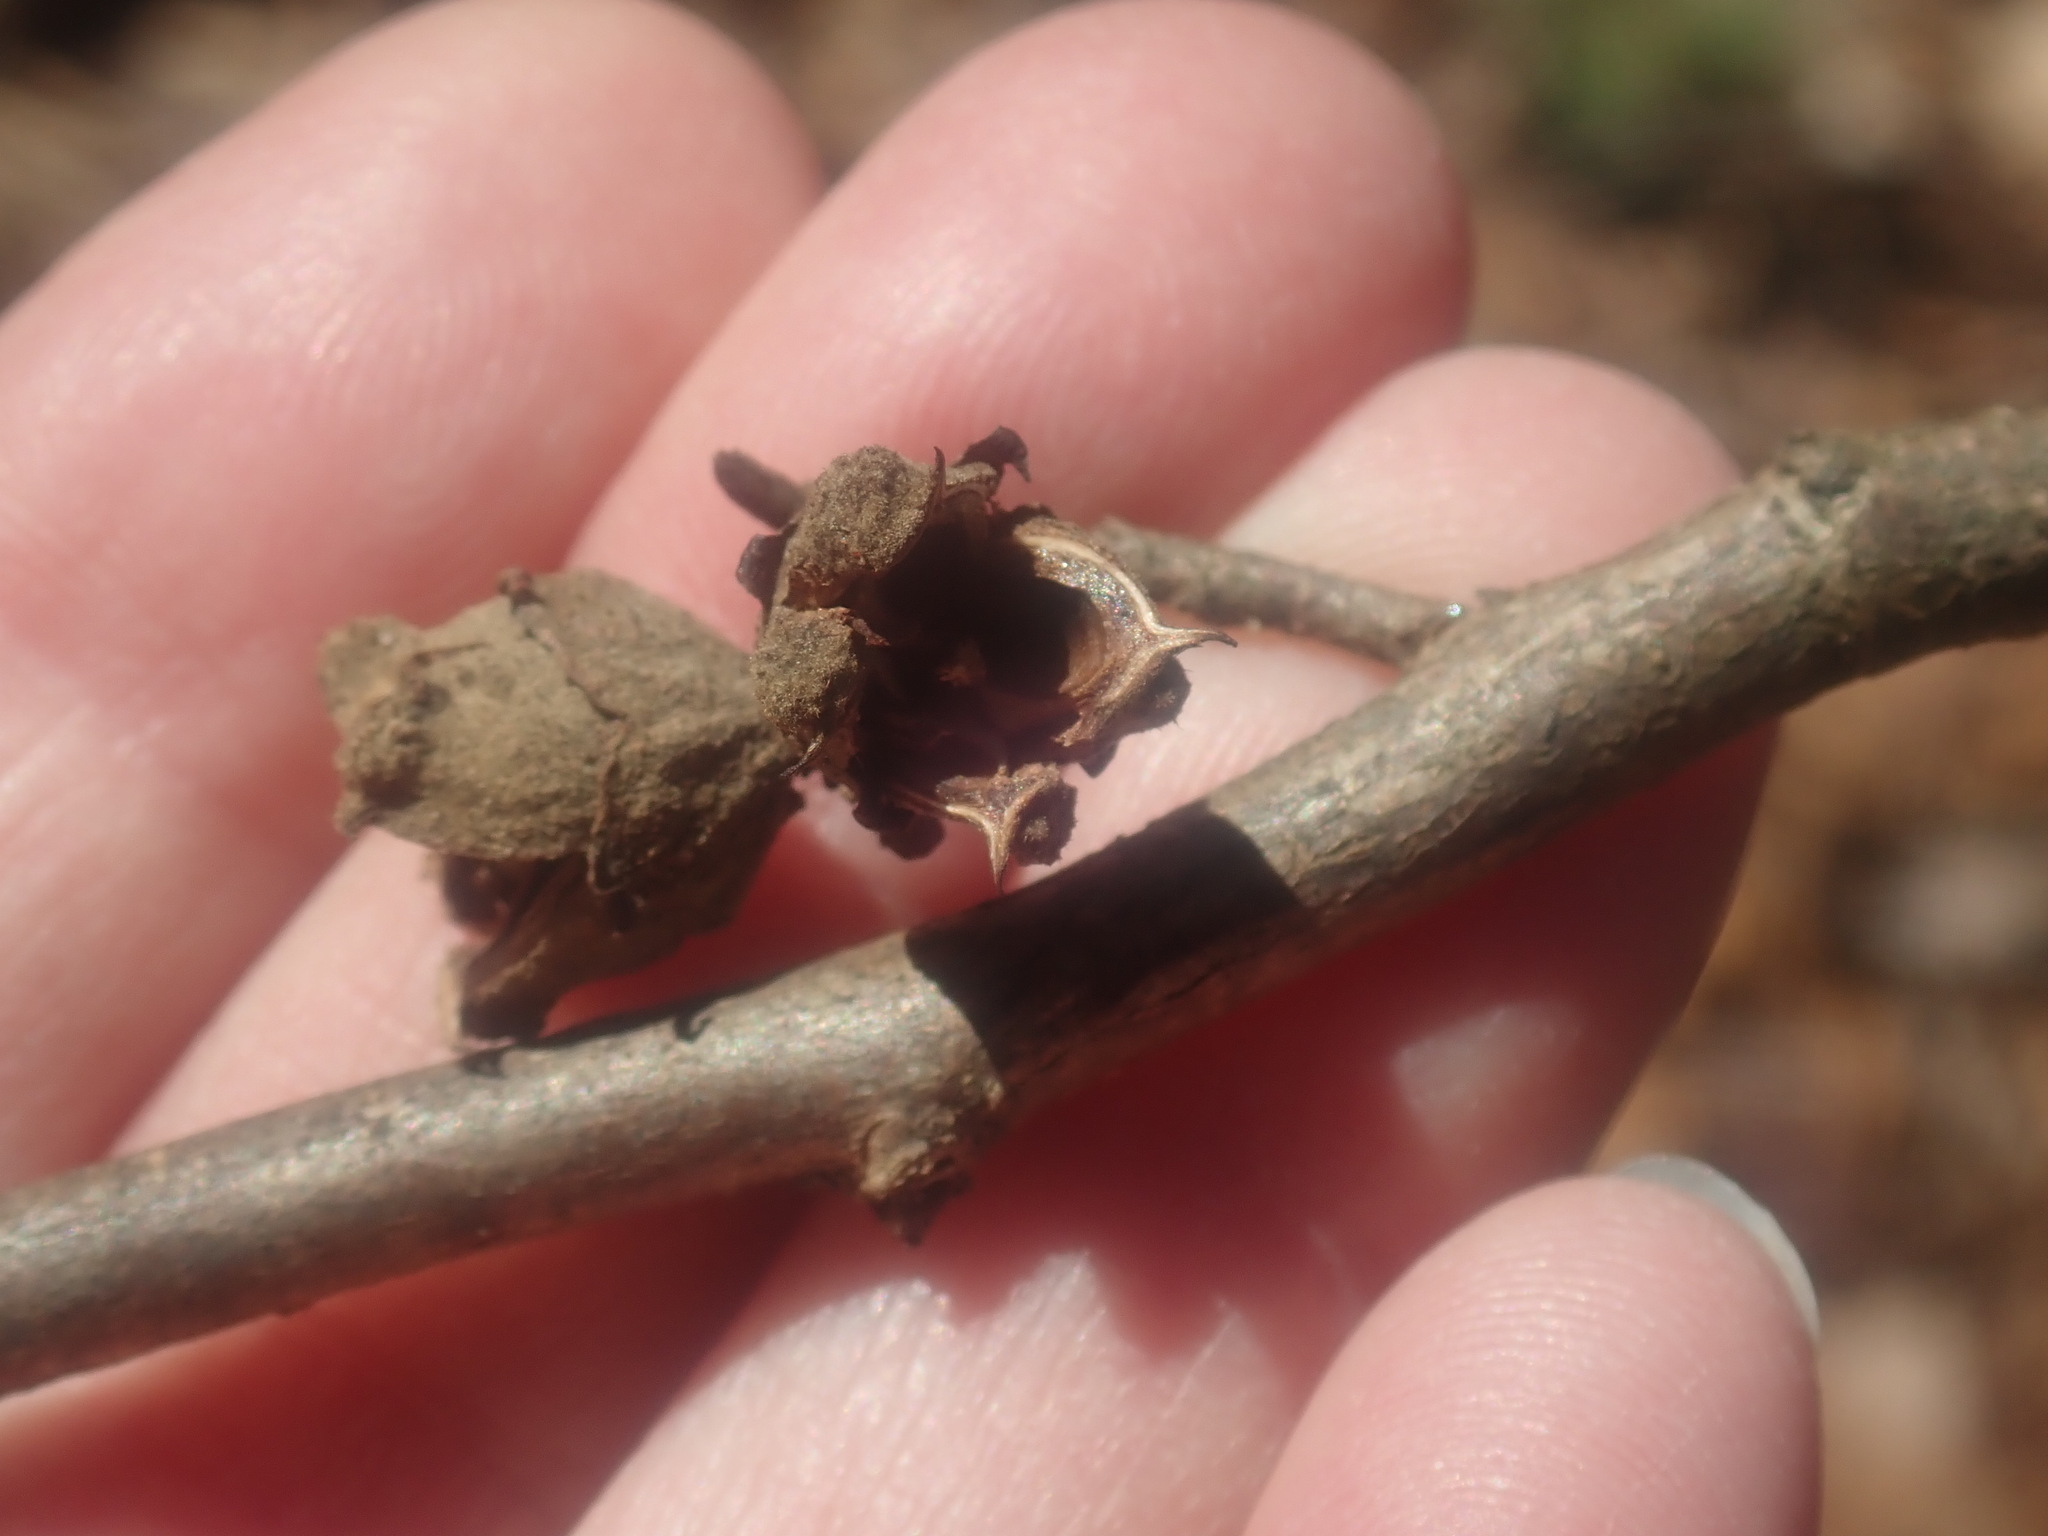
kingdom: Plantae
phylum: Tracheophyta
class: Magnoliopsida
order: Saxifragales
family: Hamamelidaceae
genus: Hamamelis
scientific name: Hamamelis virginiana
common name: Witch-hazel
